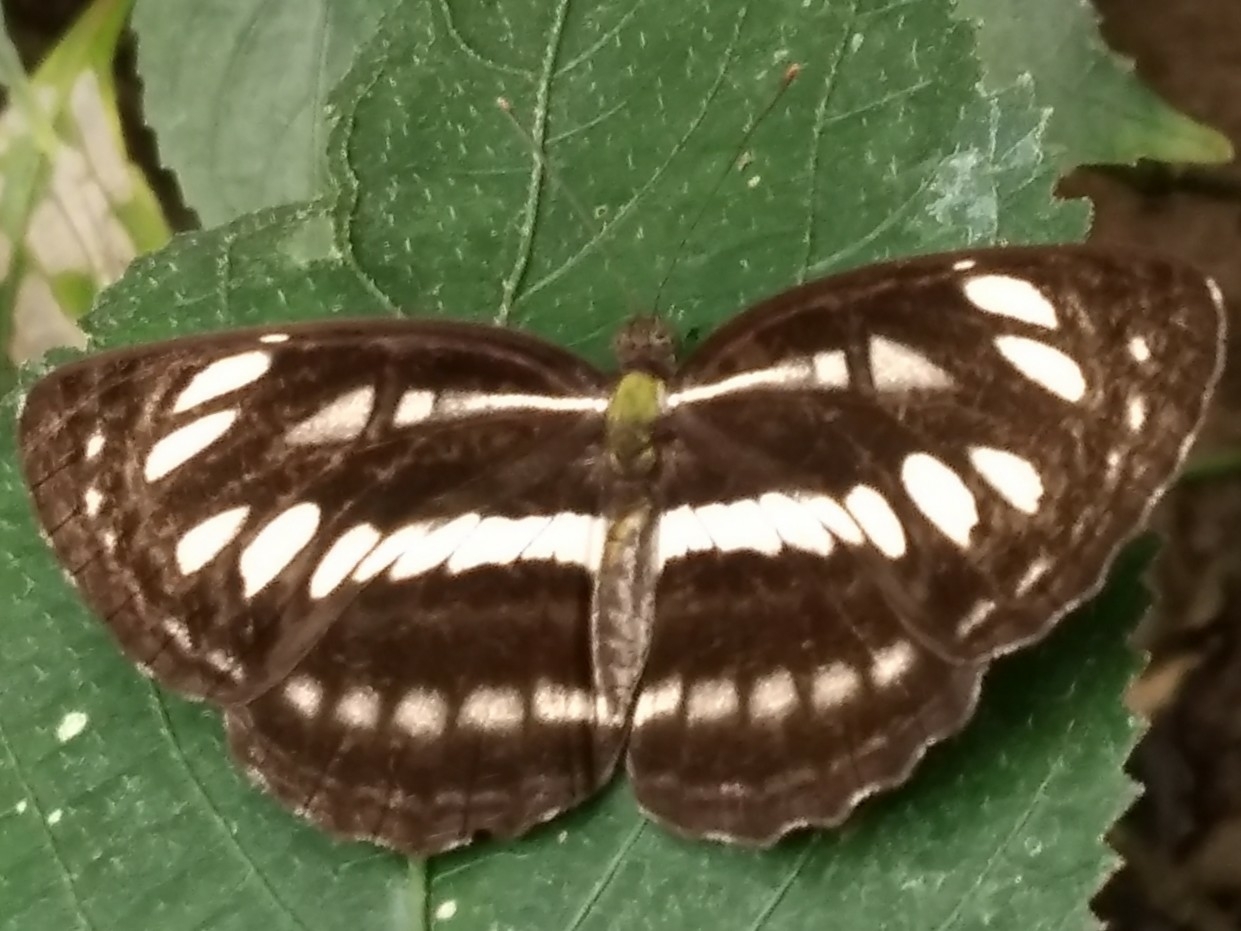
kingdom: Animalia
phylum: Arthropoda
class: Insecta
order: Lepidoptera
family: Nymphalidae
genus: Neptis
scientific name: Neptis hylas
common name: Common sailer
